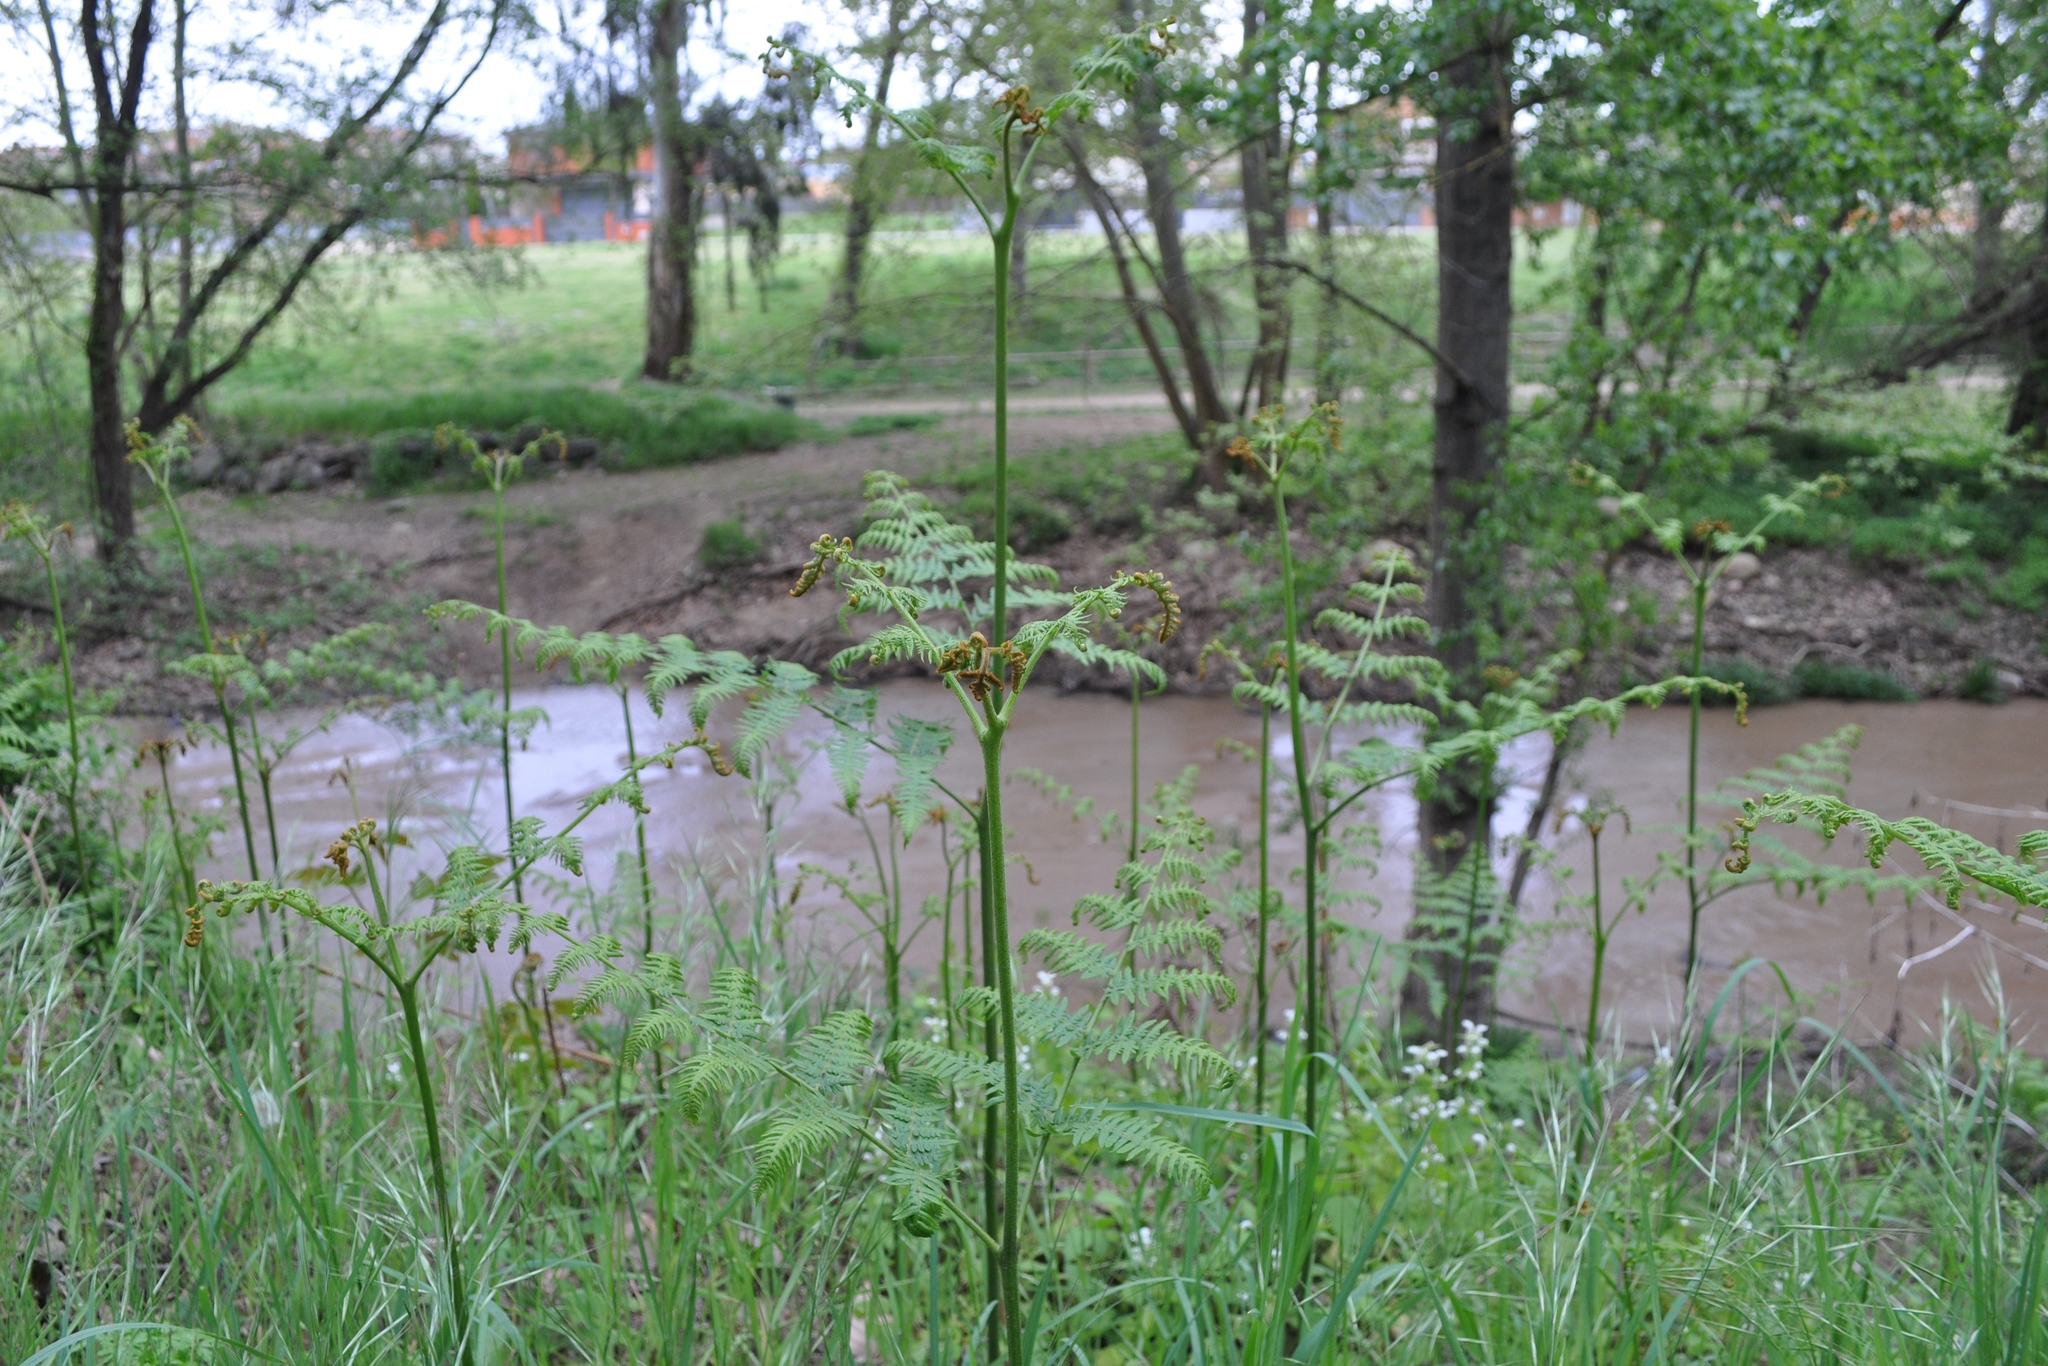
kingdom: Plantae
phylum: Tracheophyta
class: Polypodiopsida
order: Polypodiales
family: Dennstaedtiaceae
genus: Pteridium
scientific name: Pteridium aquilinum
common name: Bracken
